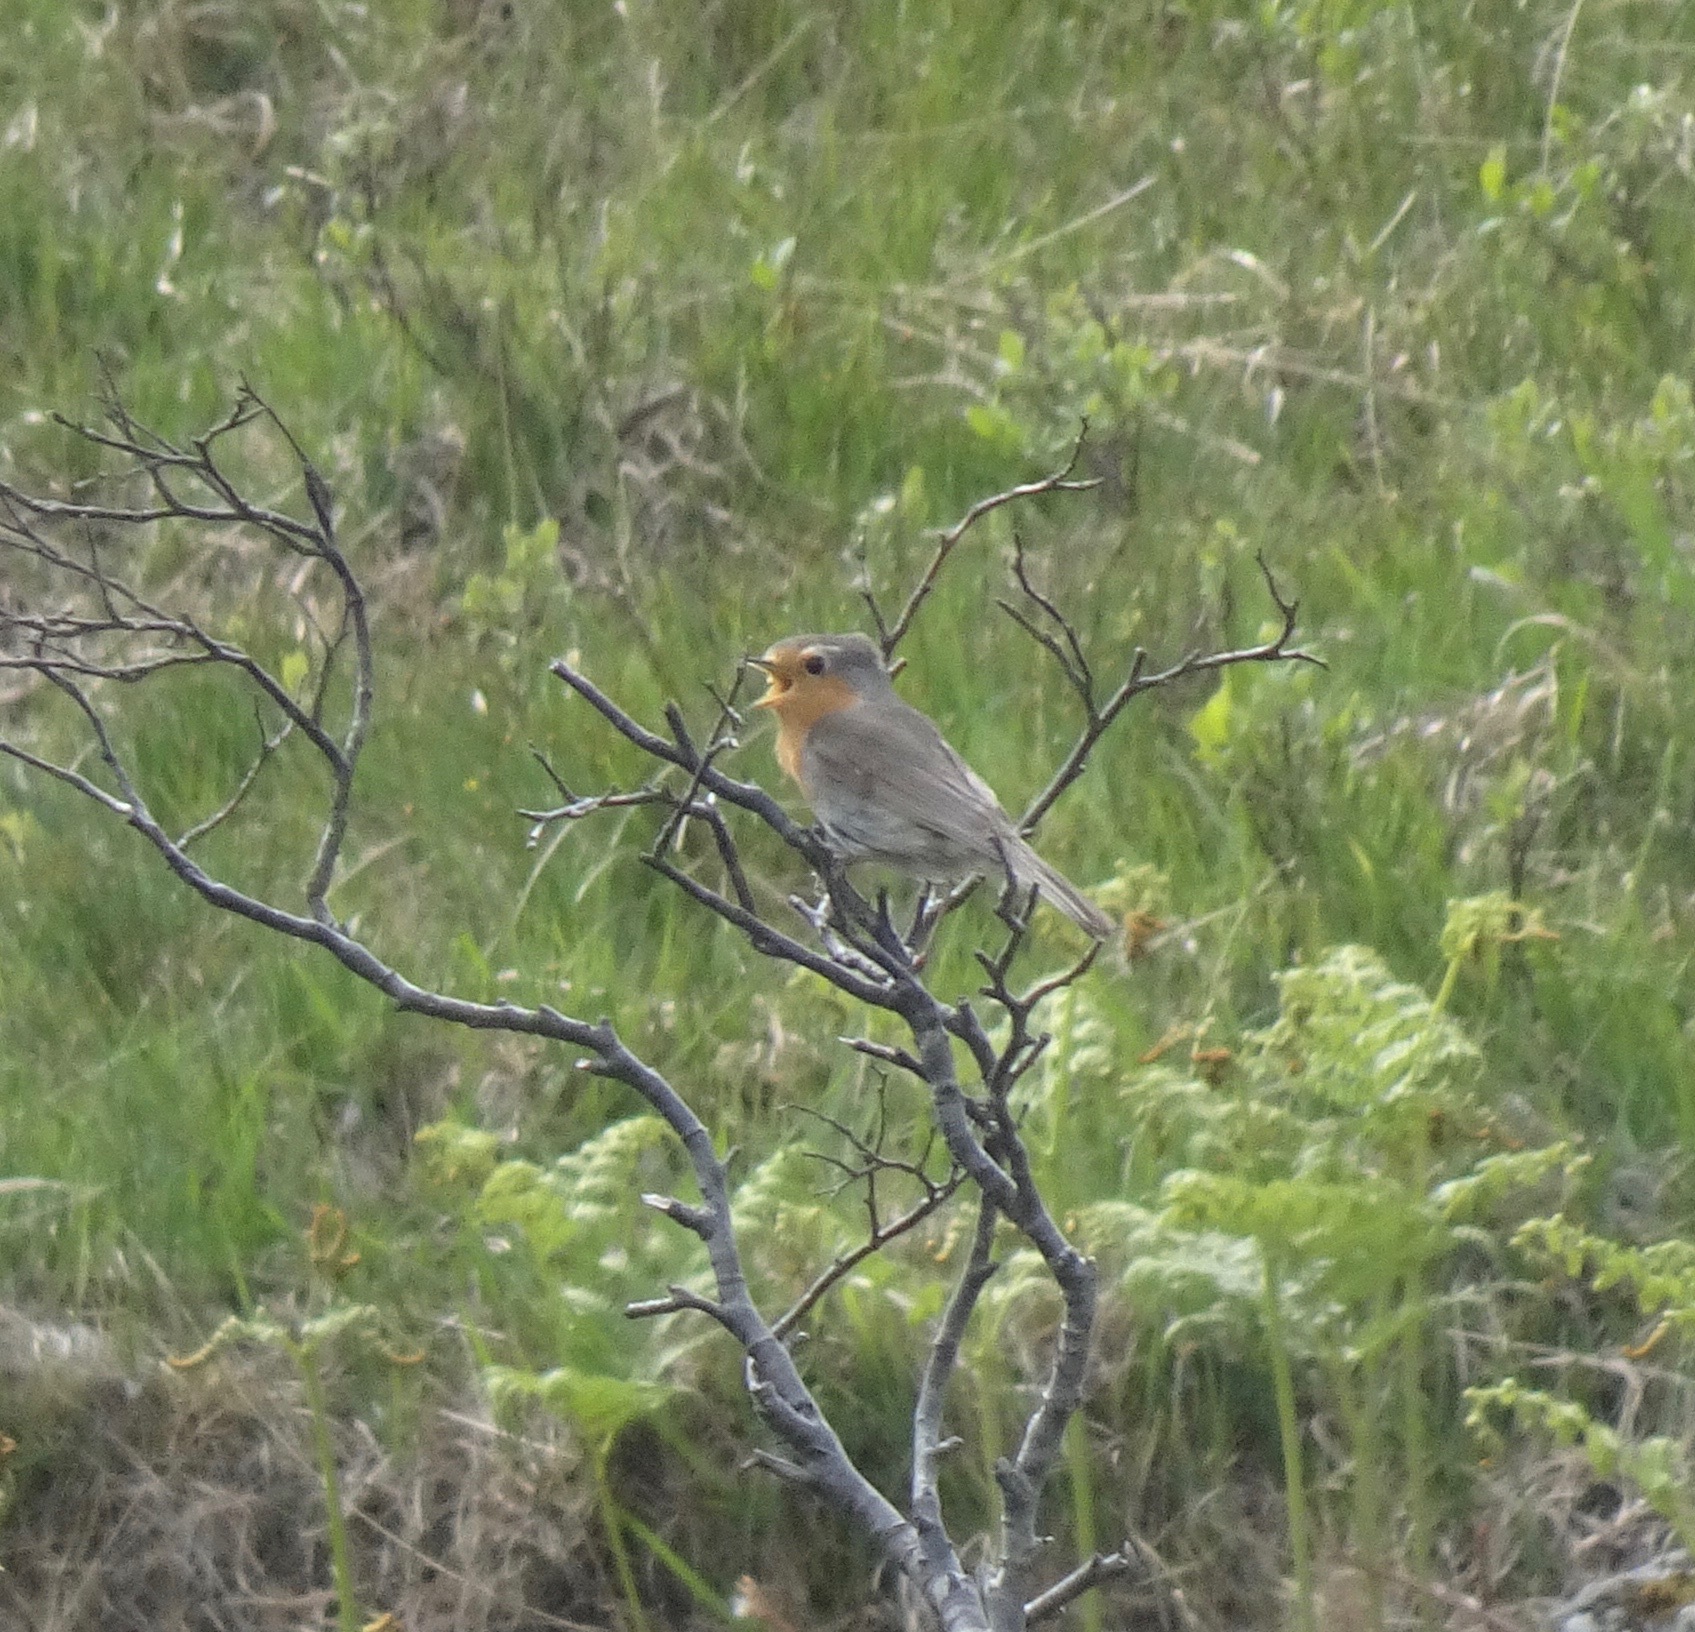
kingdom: Animalia
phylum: Chordata
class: Aves
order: Passeriformes
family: Muscicapidae
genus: Erithacus
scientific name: Erithacus rubecula
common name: European robin
